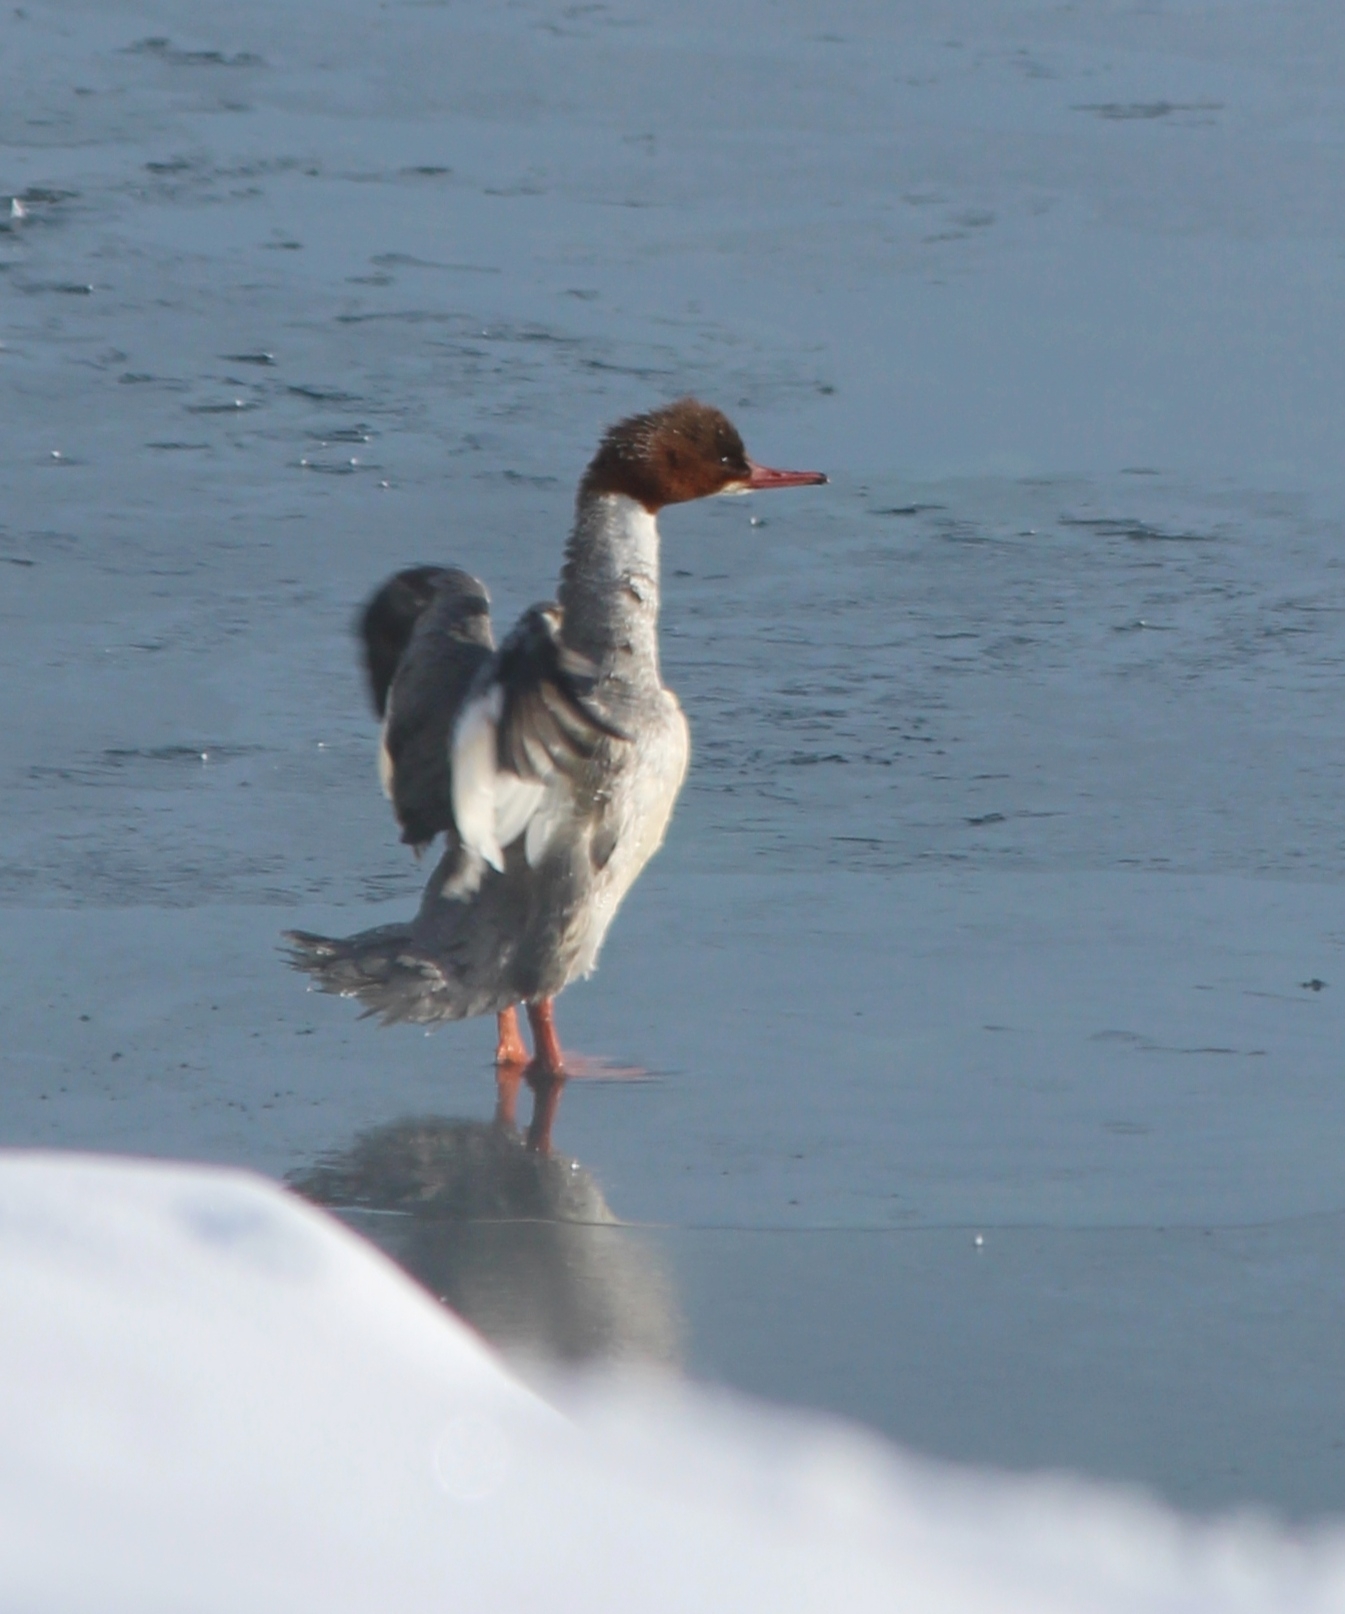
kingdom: Animalia
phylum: Chordata
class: Aves
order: Anseriformes
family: Anatidae
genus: Mergus
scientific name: Mergus merganser
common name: Common merganser
